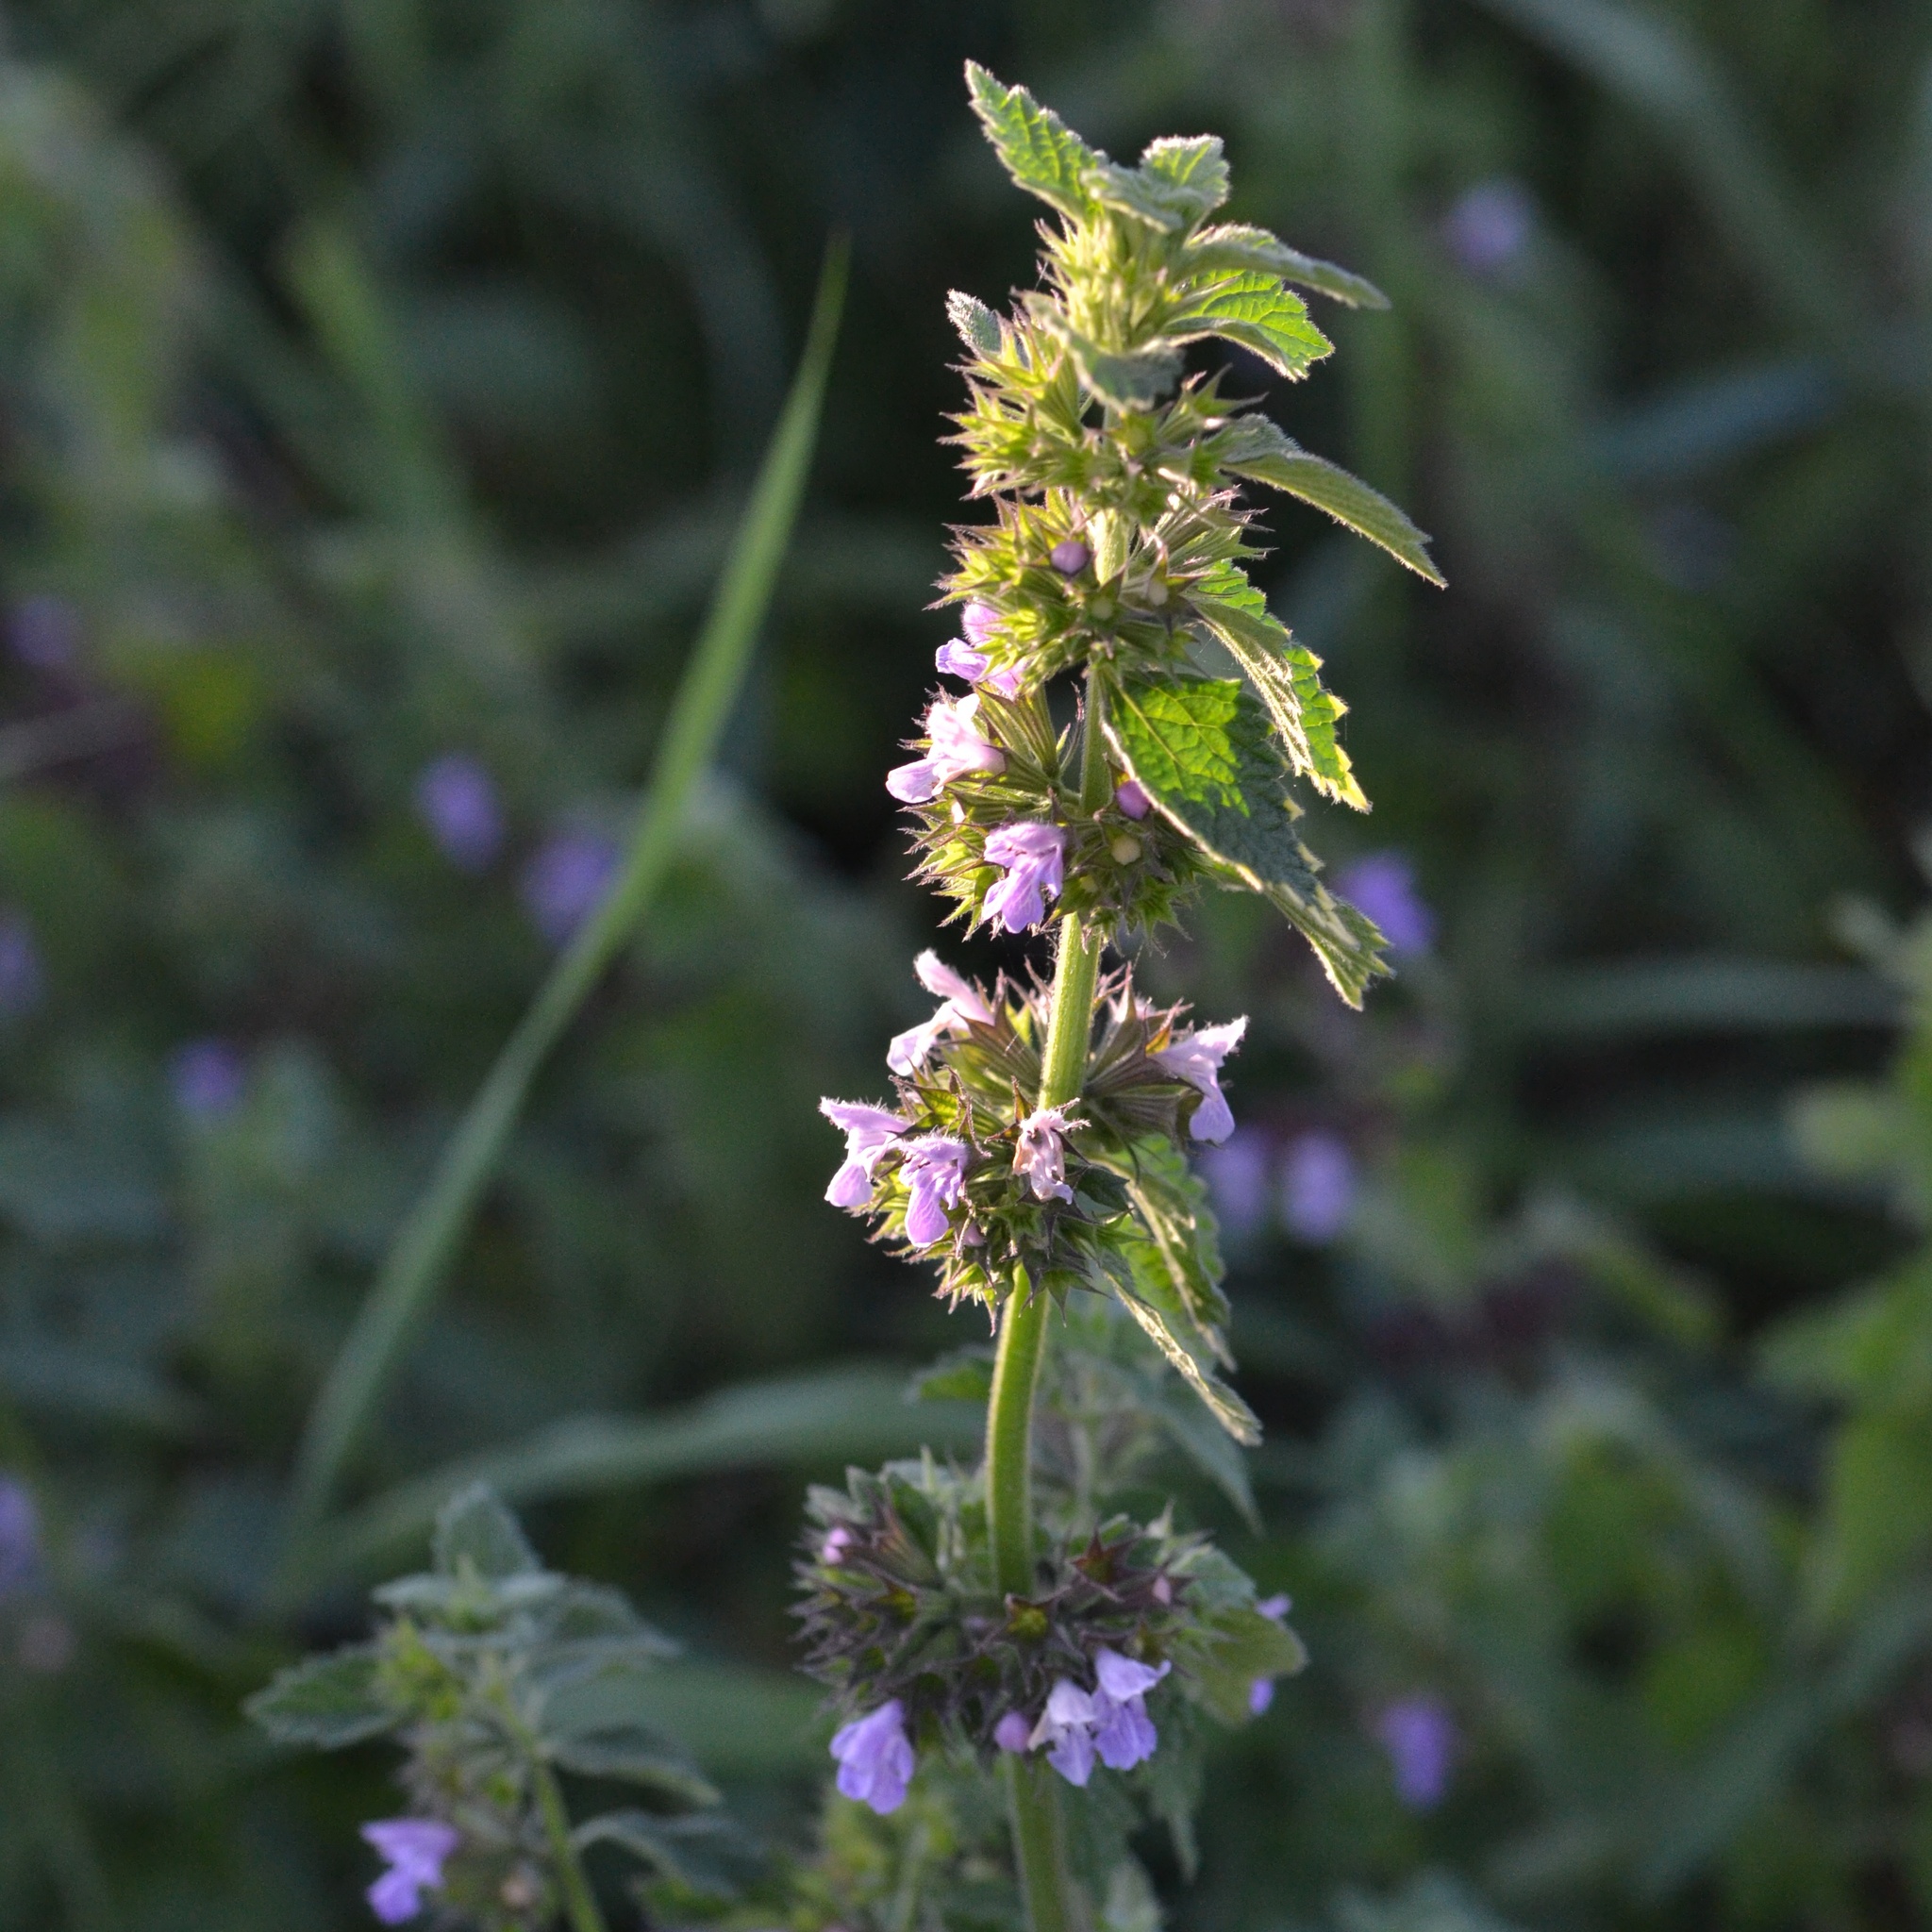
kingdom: Plantae
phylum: Tracheophyta
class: Magnoliopsida
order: Lamiales
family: Lamiaceae
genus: Ballota
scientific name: Ballota nigra
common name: Black horehound
